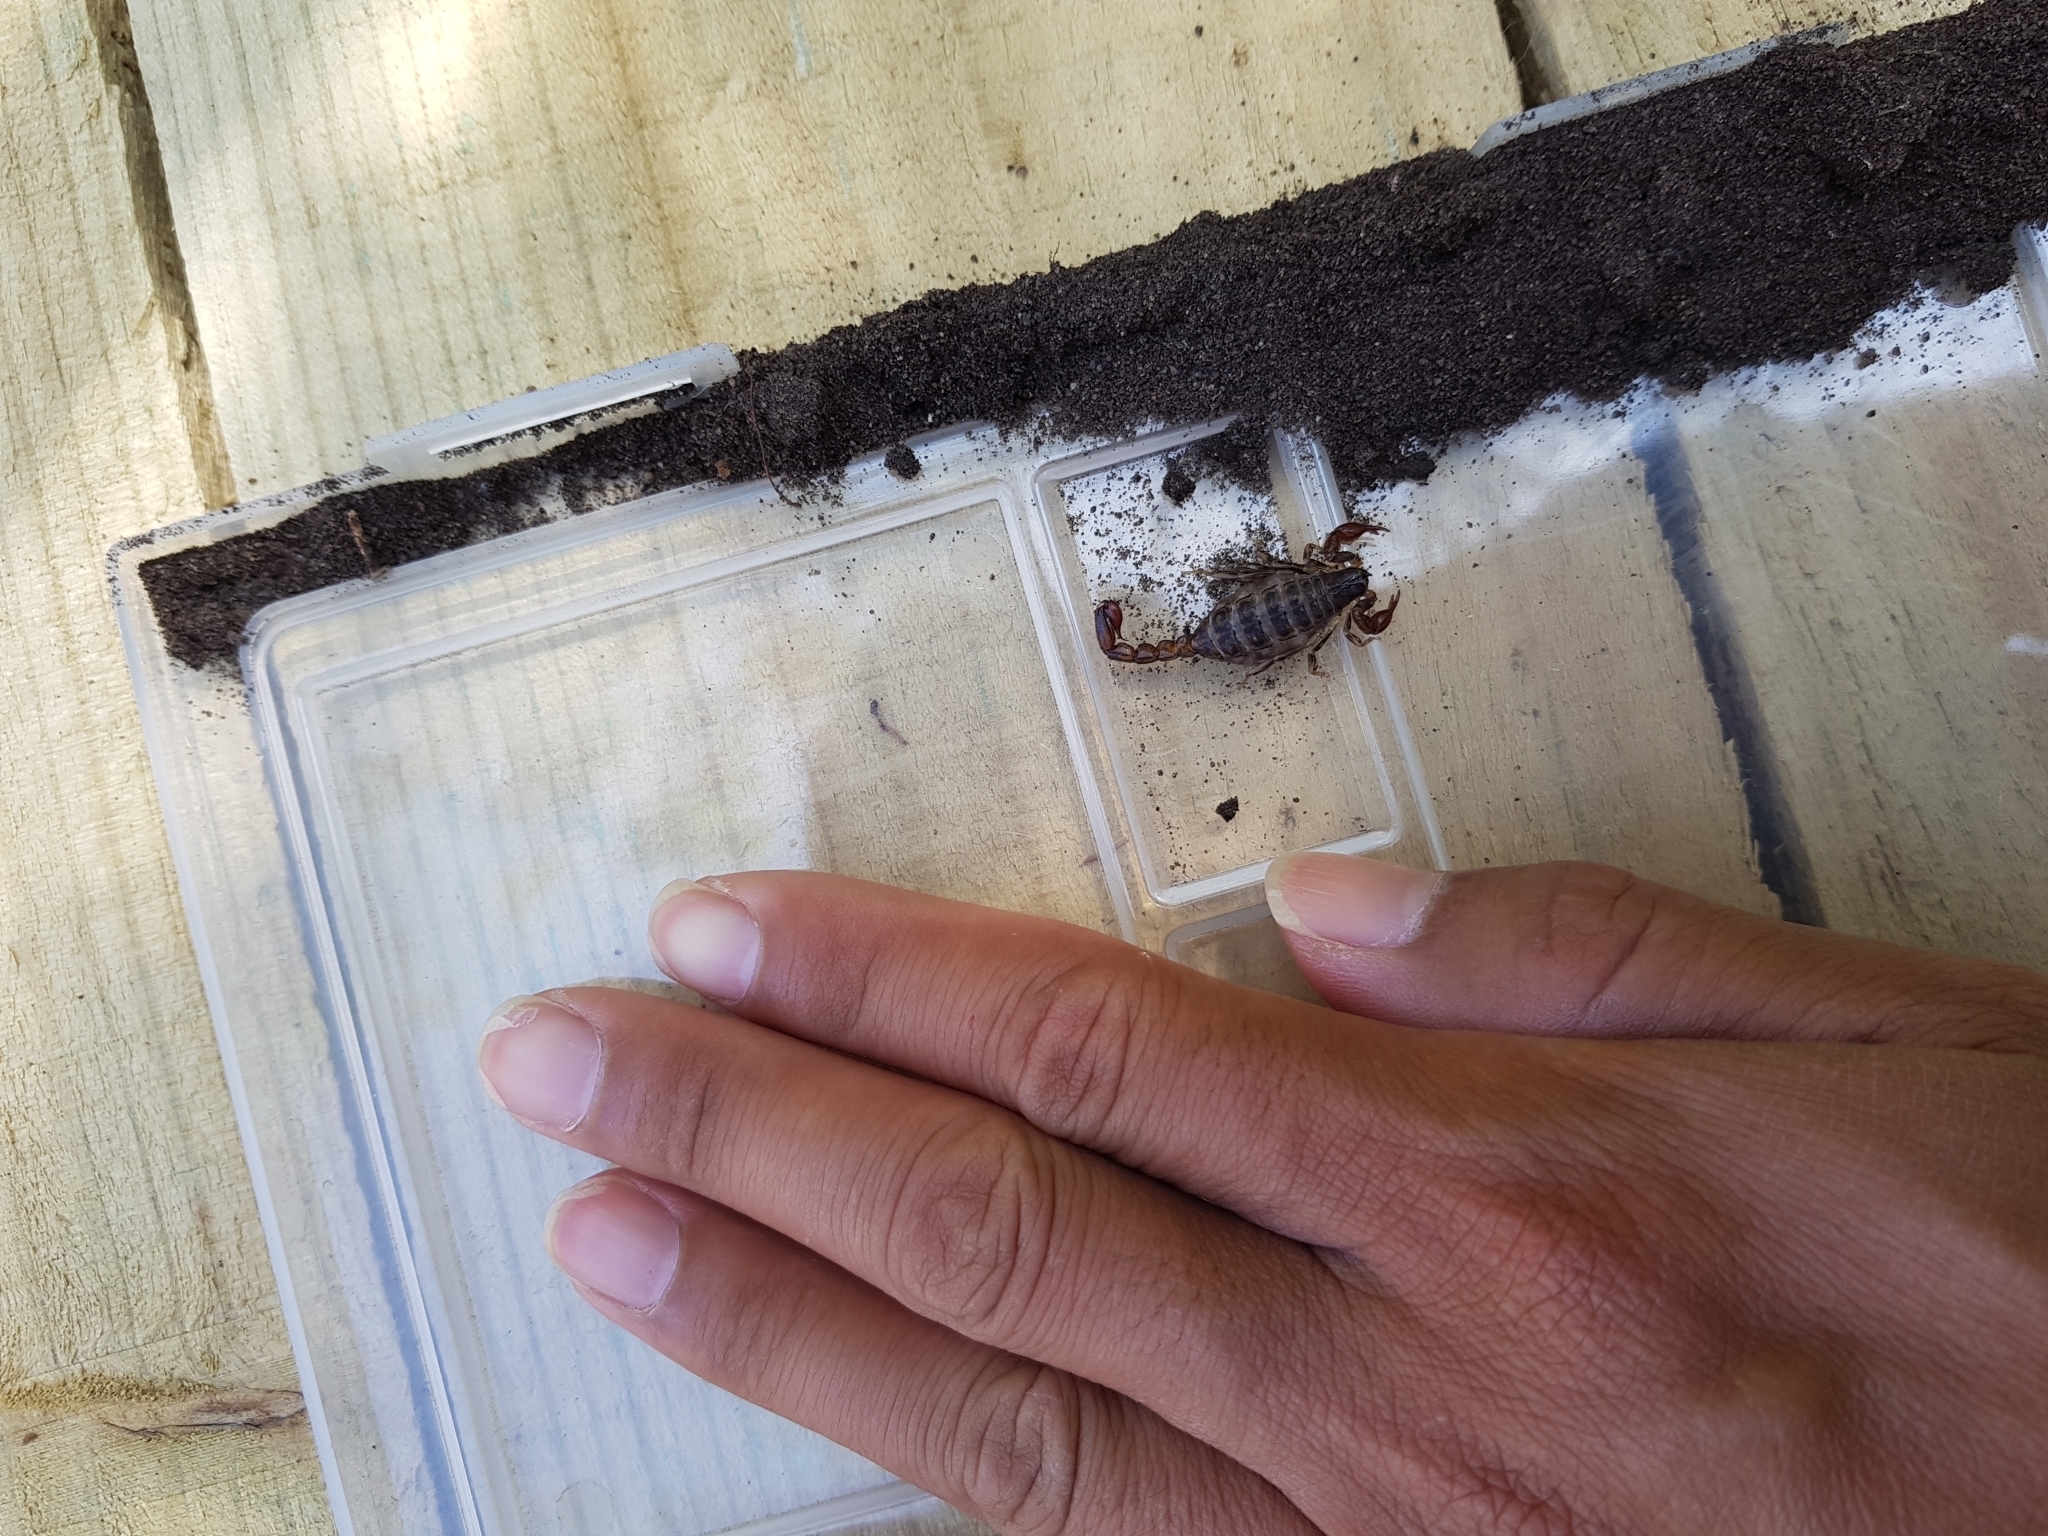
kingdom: Animalia
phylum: Arthropoda
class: Arachnida
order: Scorpiones
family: Bothriuridae
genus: Cercophonius
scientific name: Cercophonius squama
